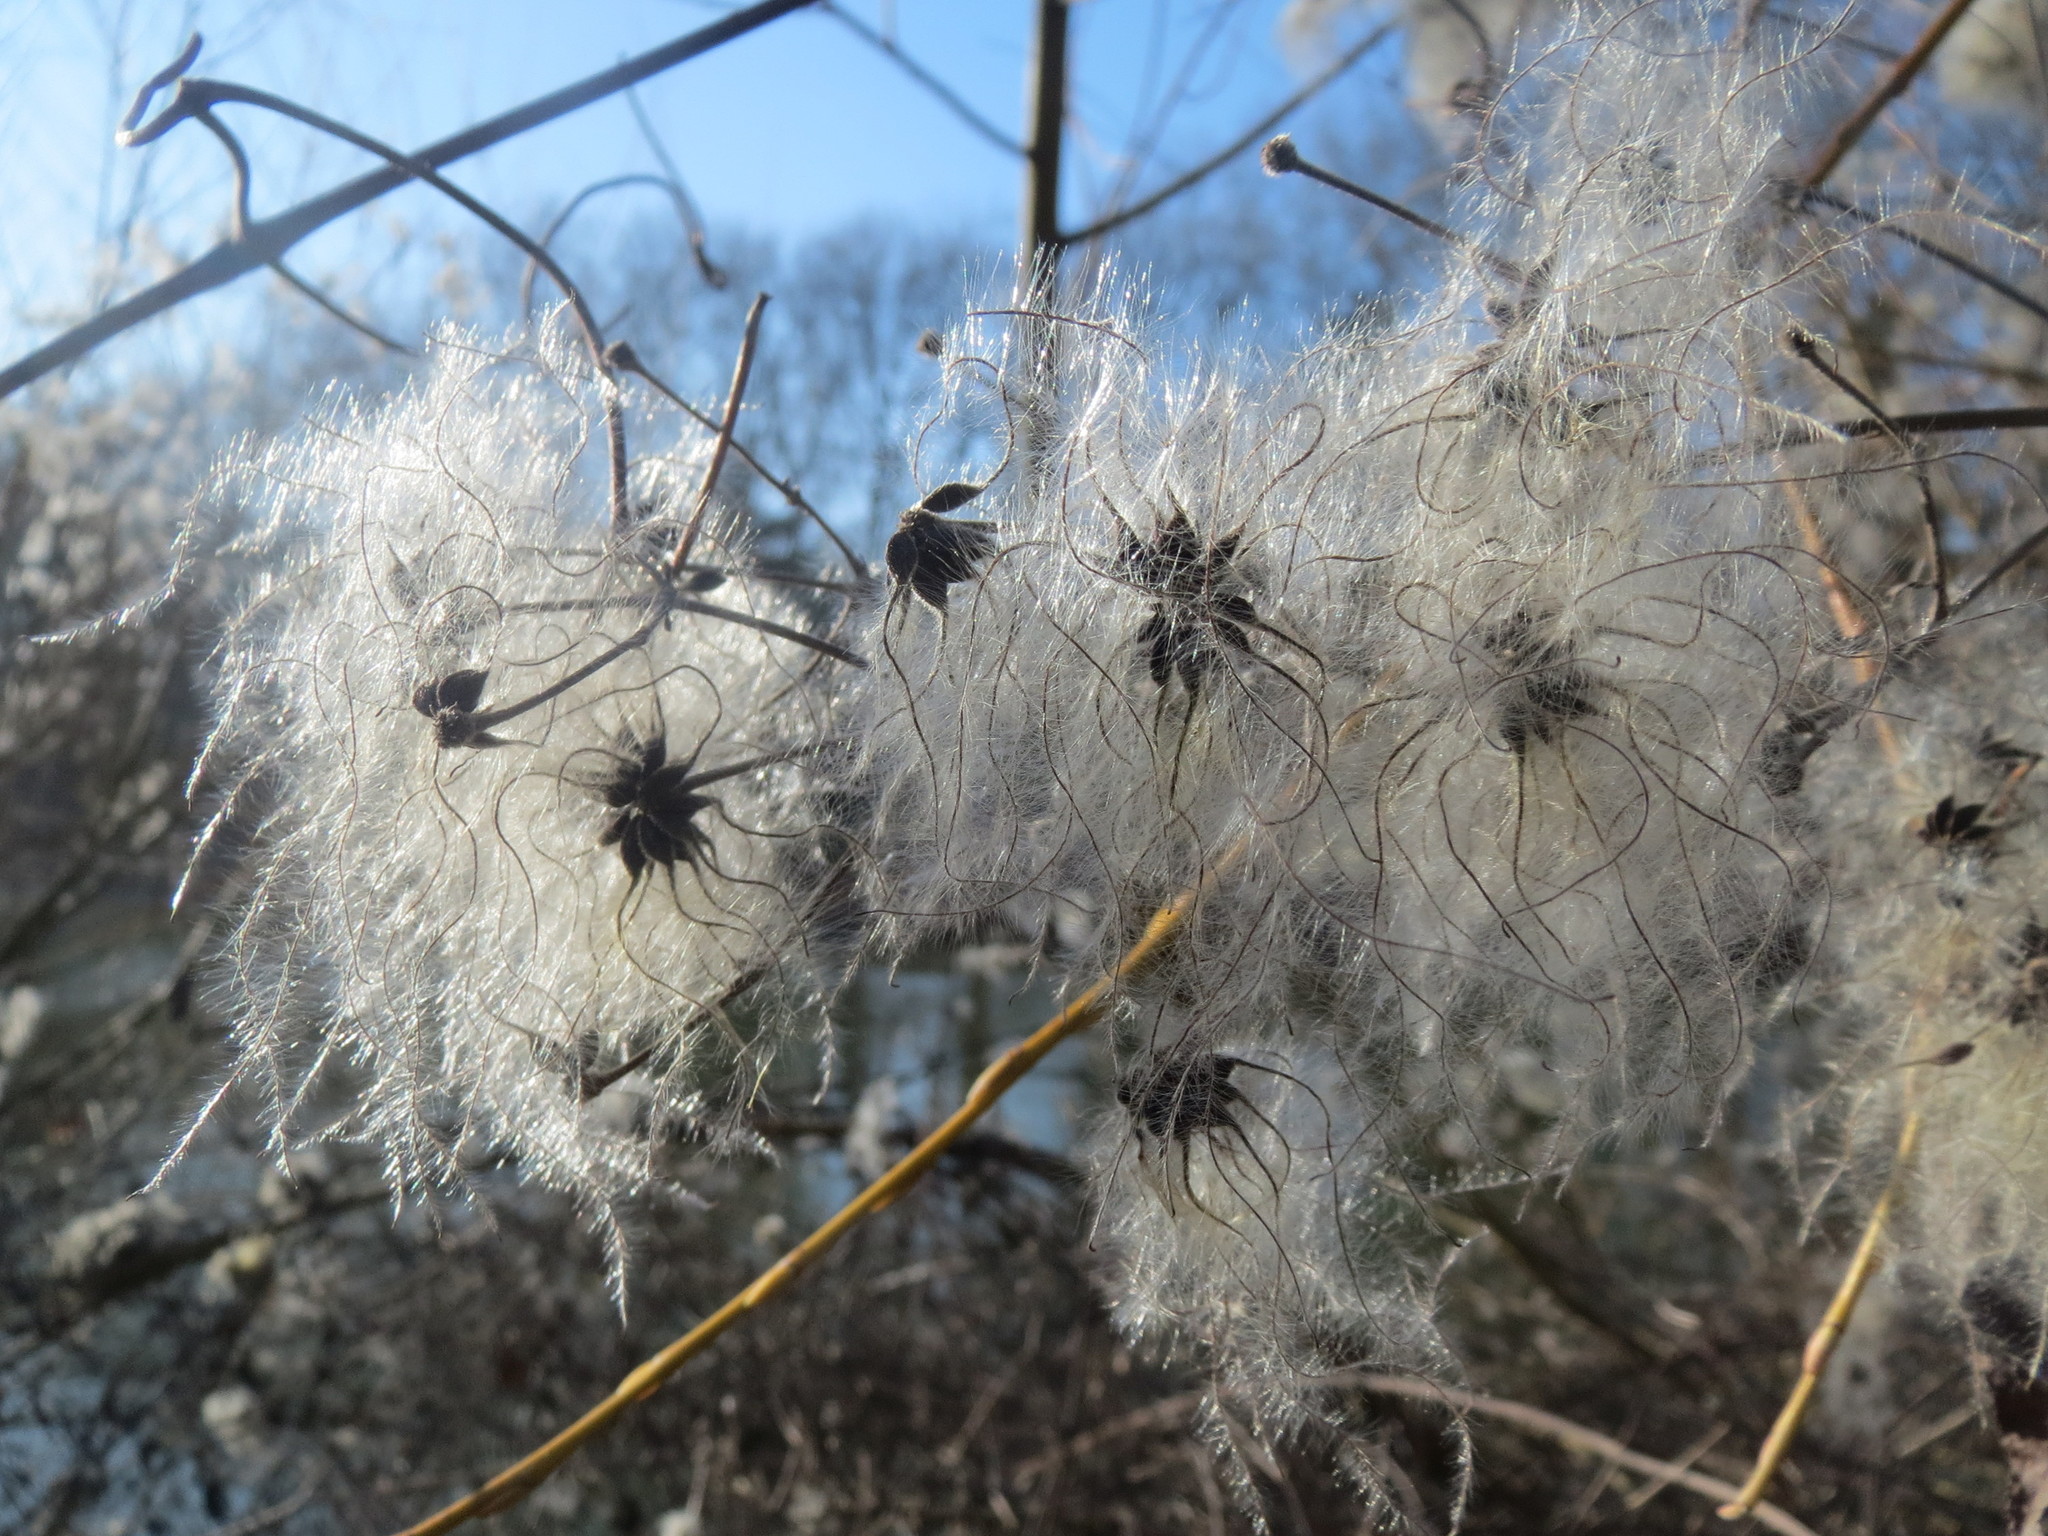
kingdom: Plantae
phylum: Tracheophyta
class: Magnoliopsida
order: Ranunculales
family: Ranunculaceae
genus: Clematis
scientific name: Clematis vitalba
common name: Evergreen clematis
